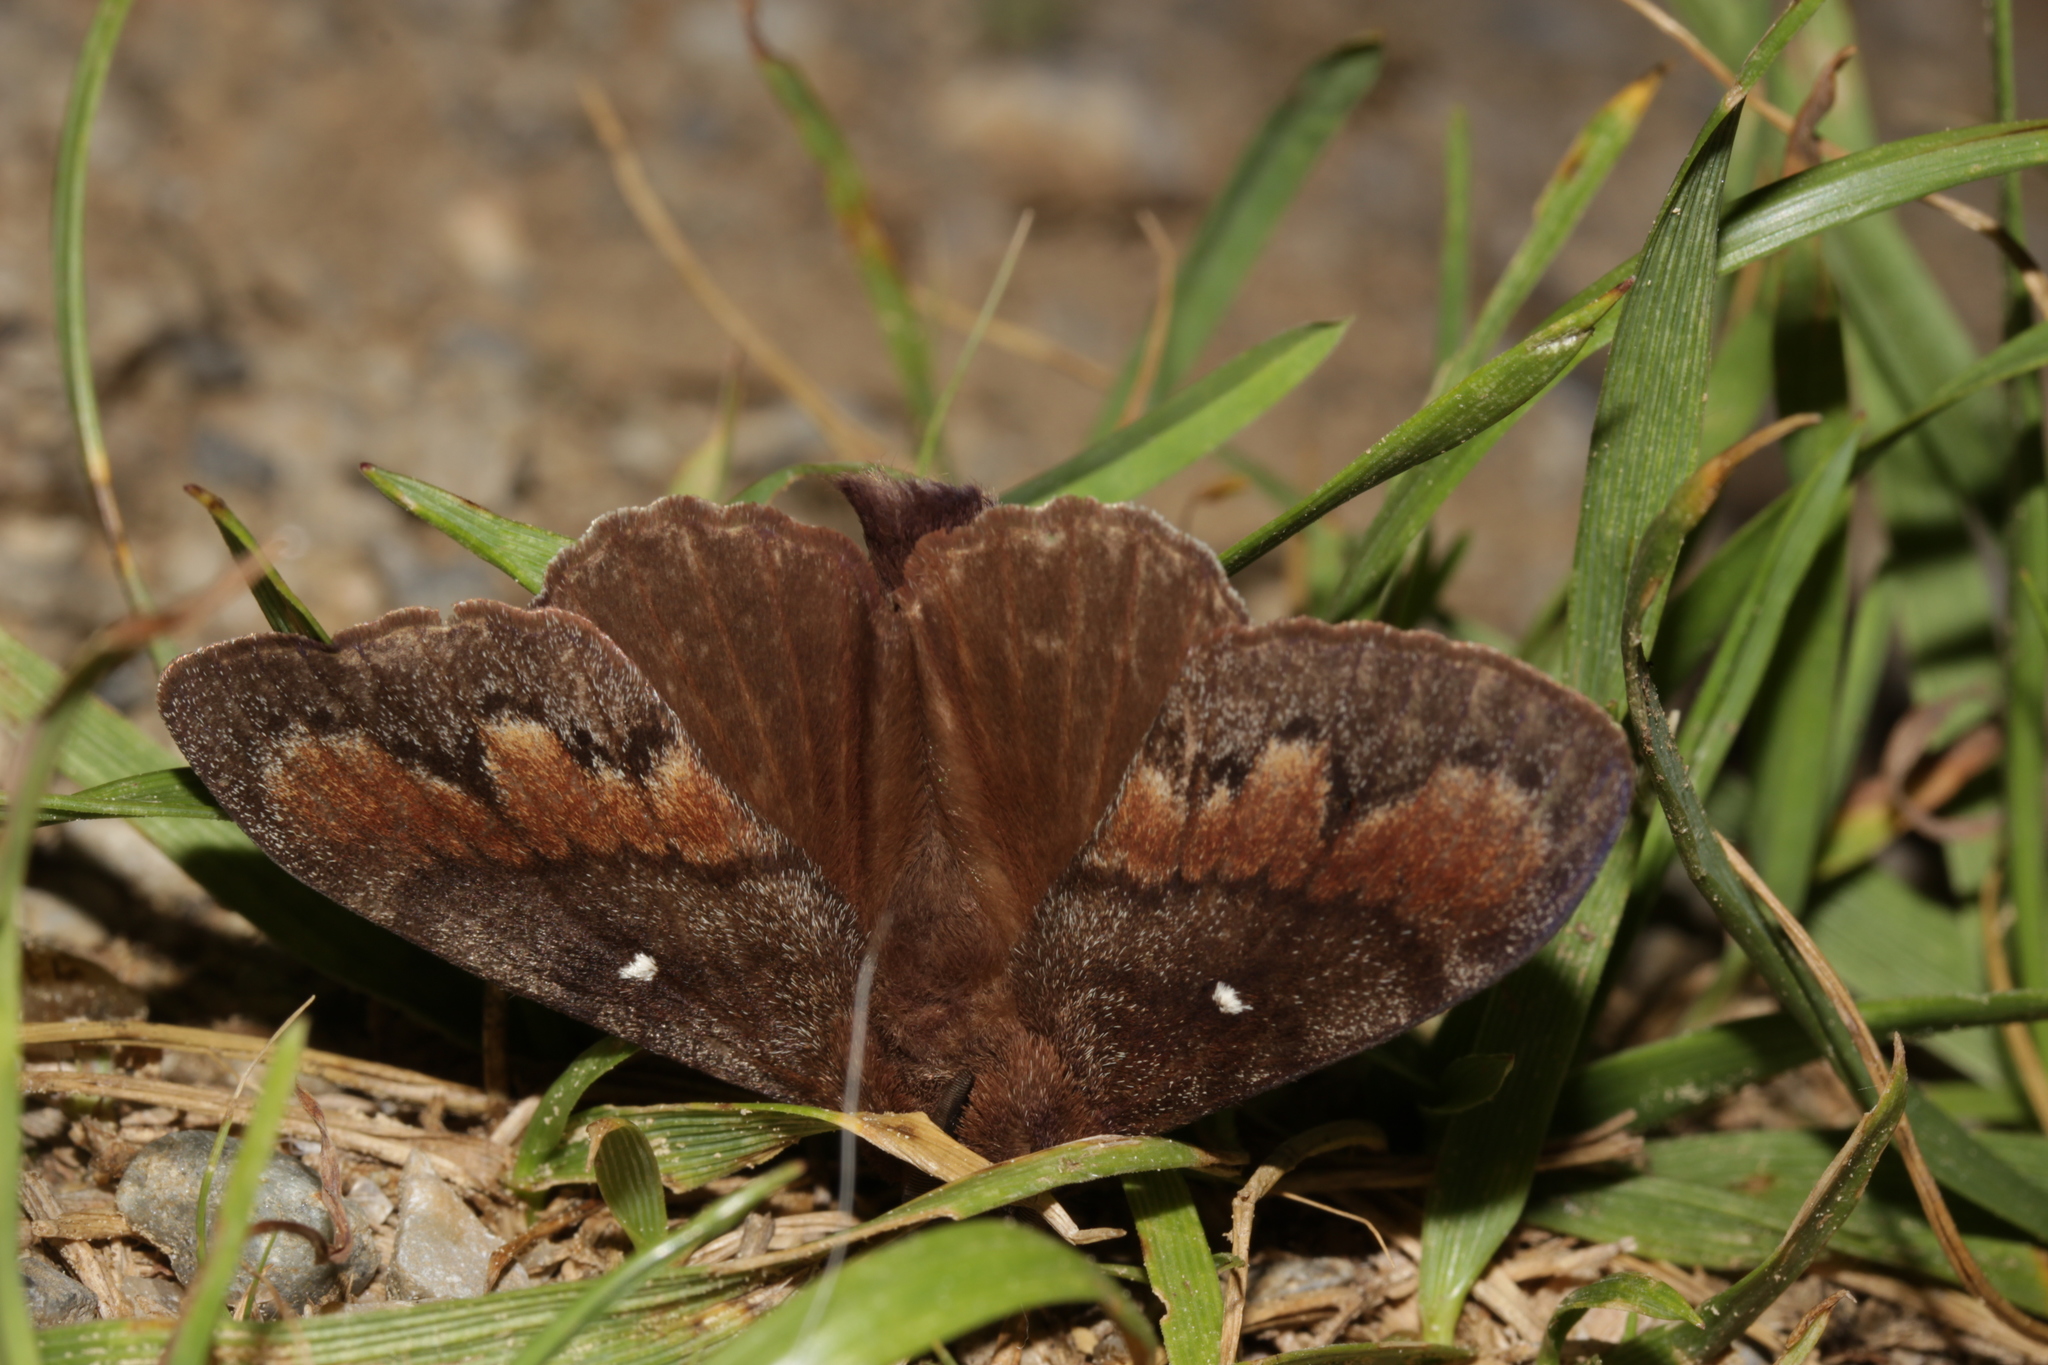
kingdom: Animalia
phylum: Arthropoda
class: Insecta
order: Lepidoptera
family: Lasiocampidae
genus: Dendrolimus
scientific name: Dendrolimus pini
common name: Pine-tree lappet
